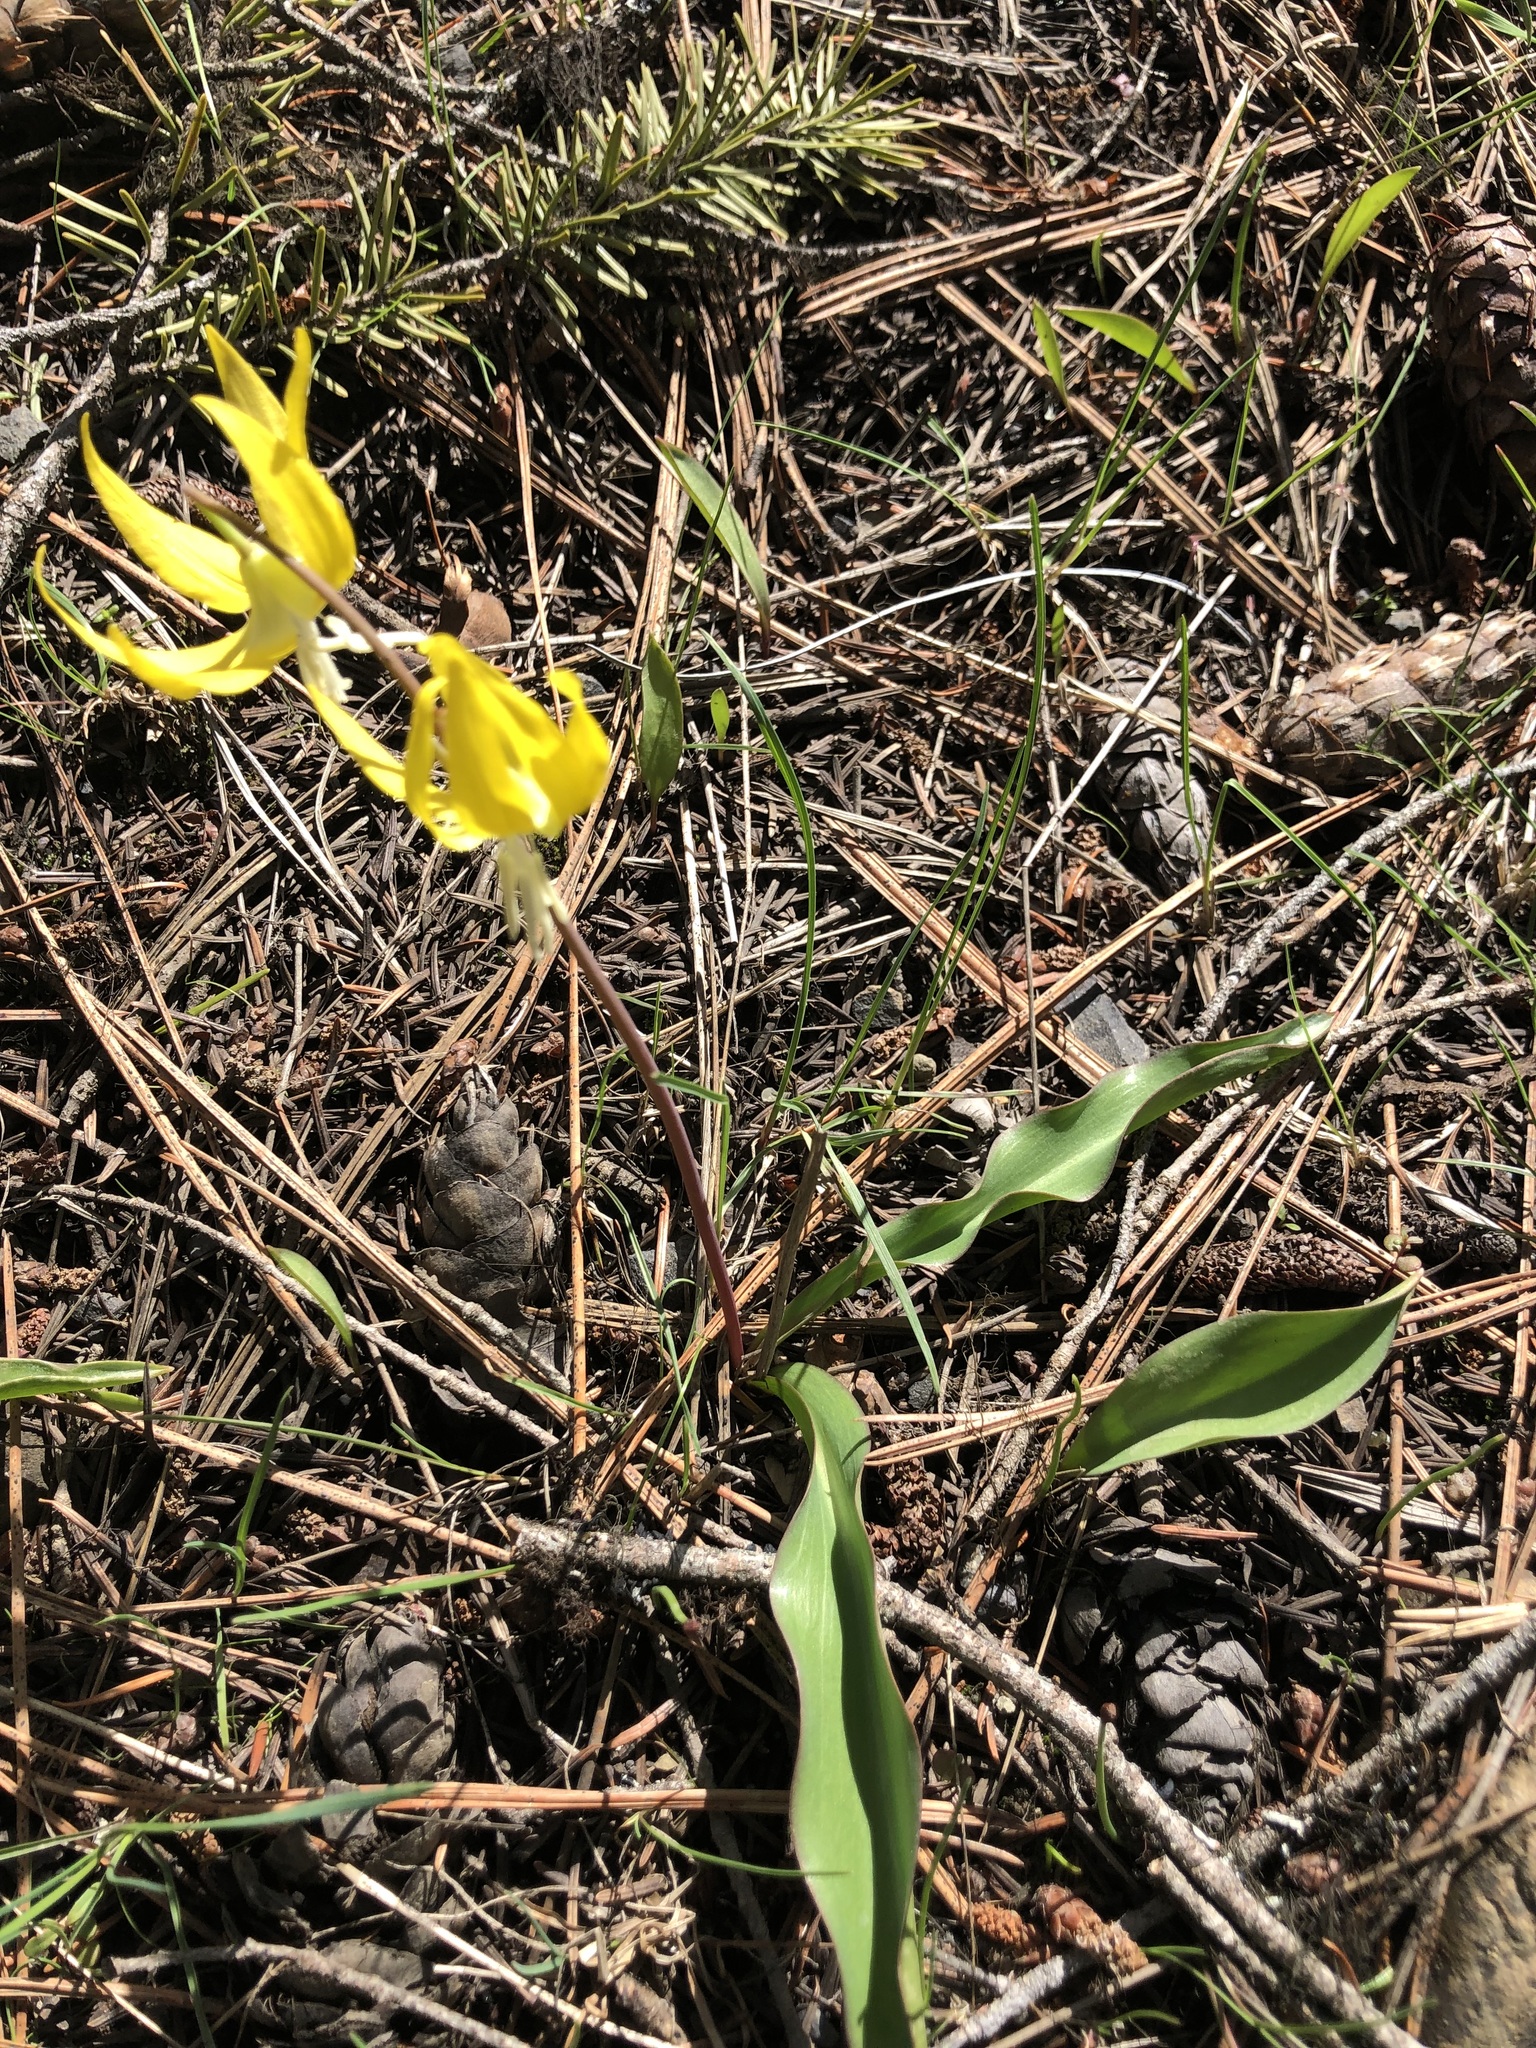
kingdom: Plantae
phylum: Tracheophyta
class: Liliopsida
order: Liliales
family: Liliaceae
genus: Erythronium
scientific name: Erythronium grandiflorum
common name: Avalanche-lily
